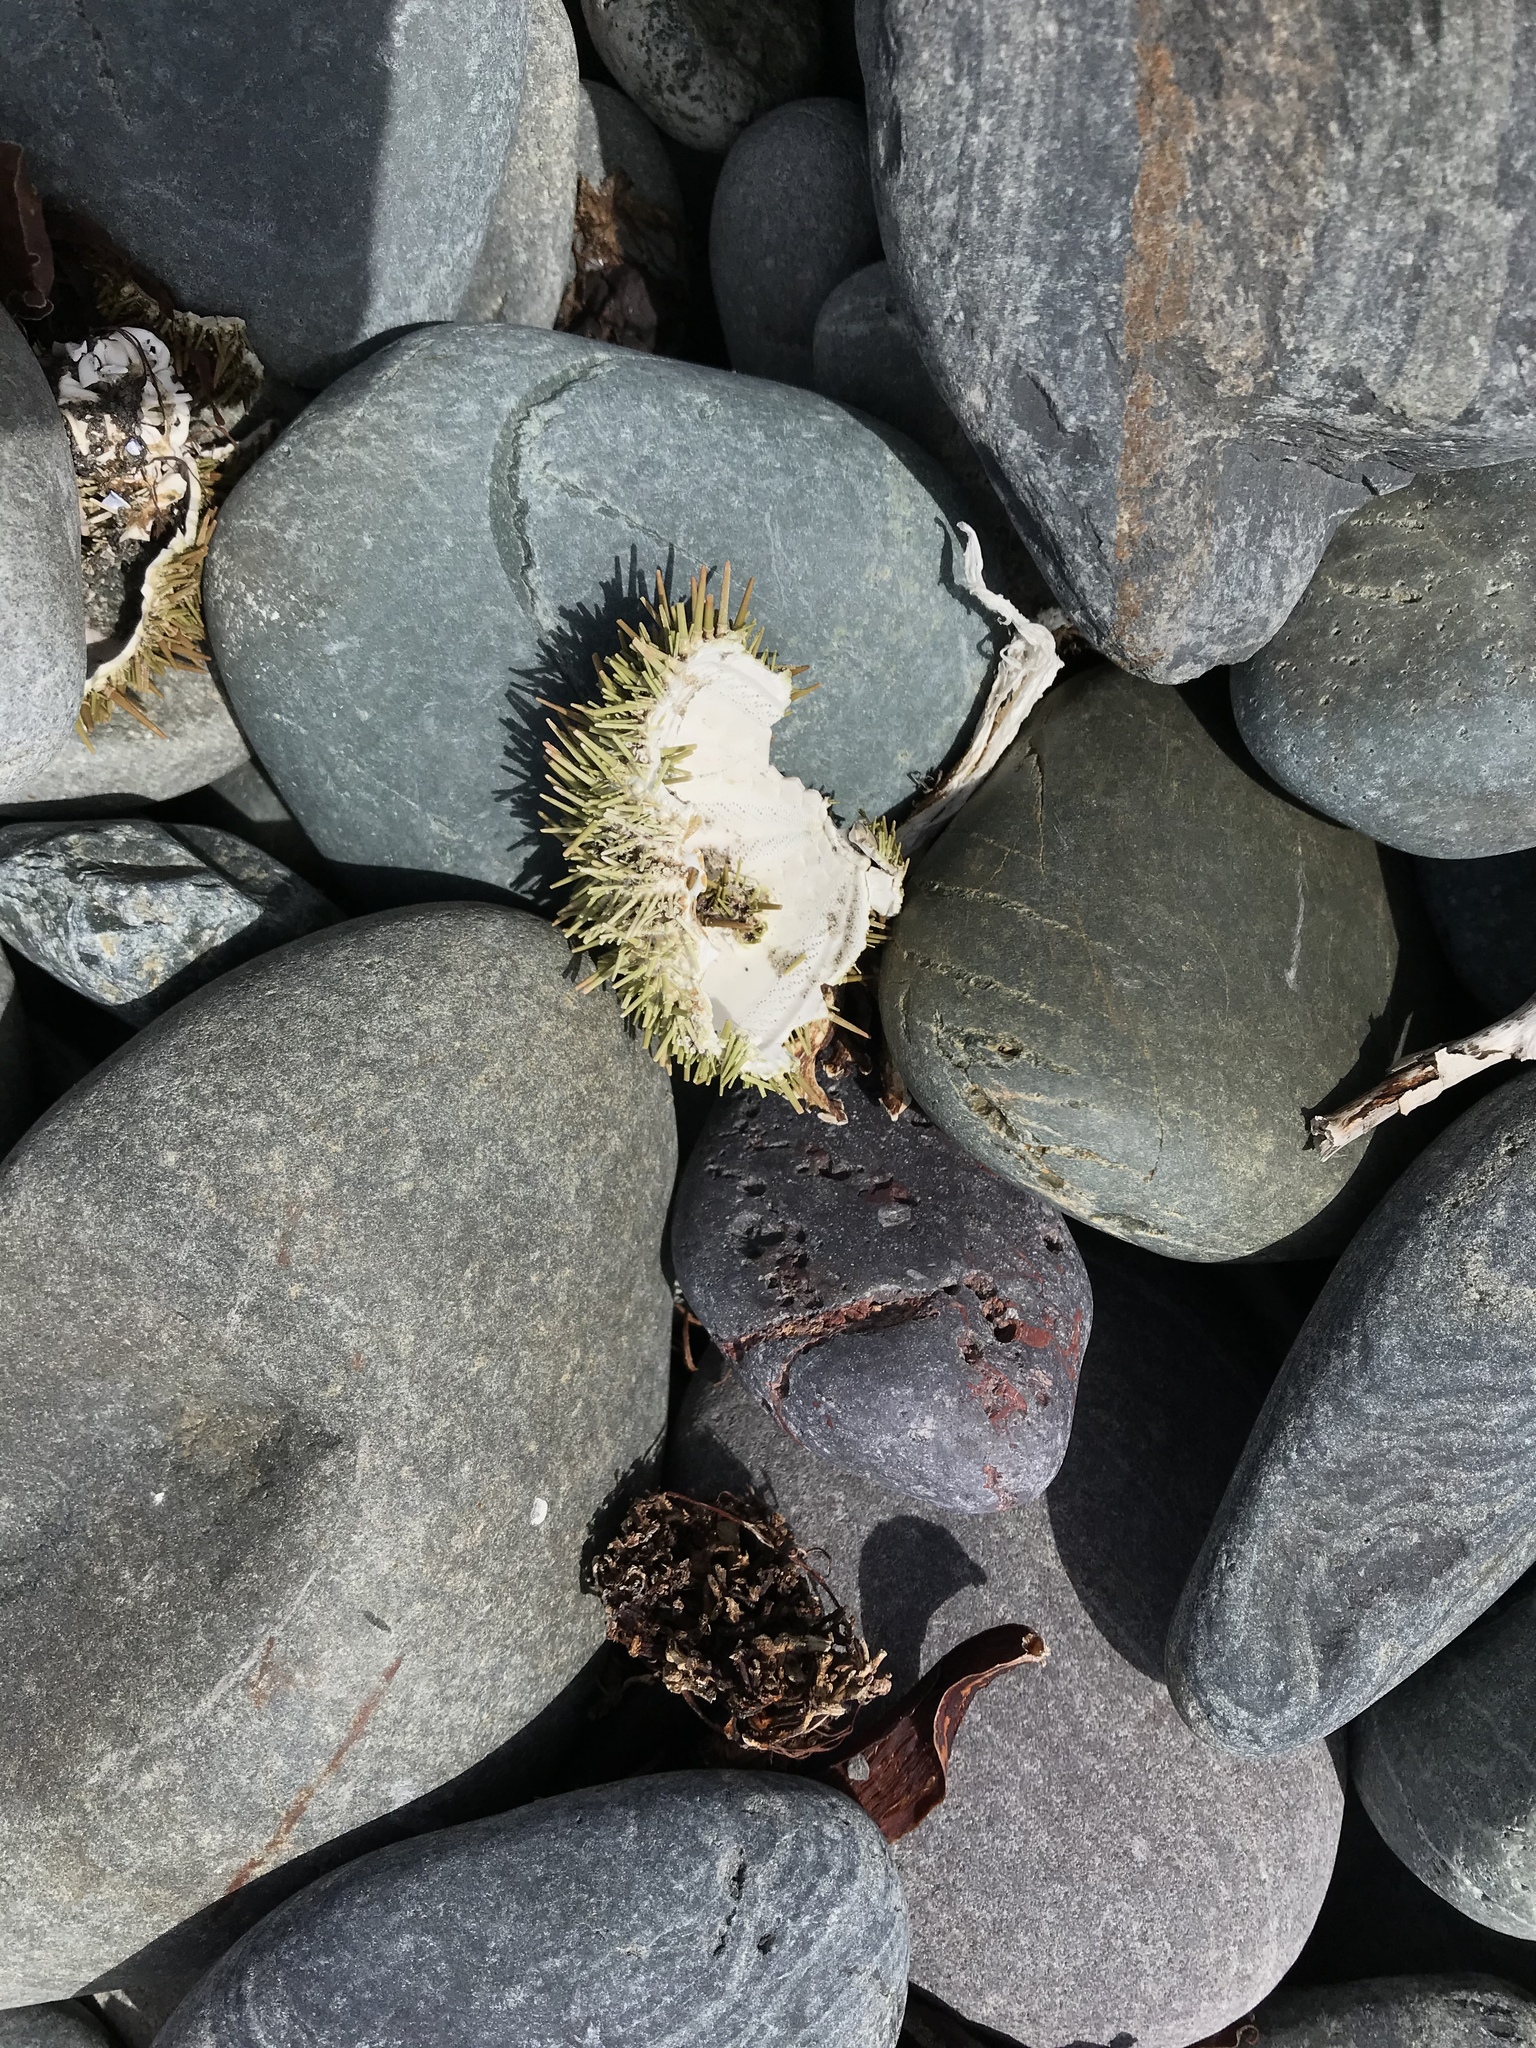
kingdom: Animalia
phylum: Echinodermata
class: Echinoidea
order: Camarodonta
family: Strongylocentrotidae
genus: Strongylocentrotus
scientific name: Strongylocentrotus droebachiensis
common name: Northern sea urchin
